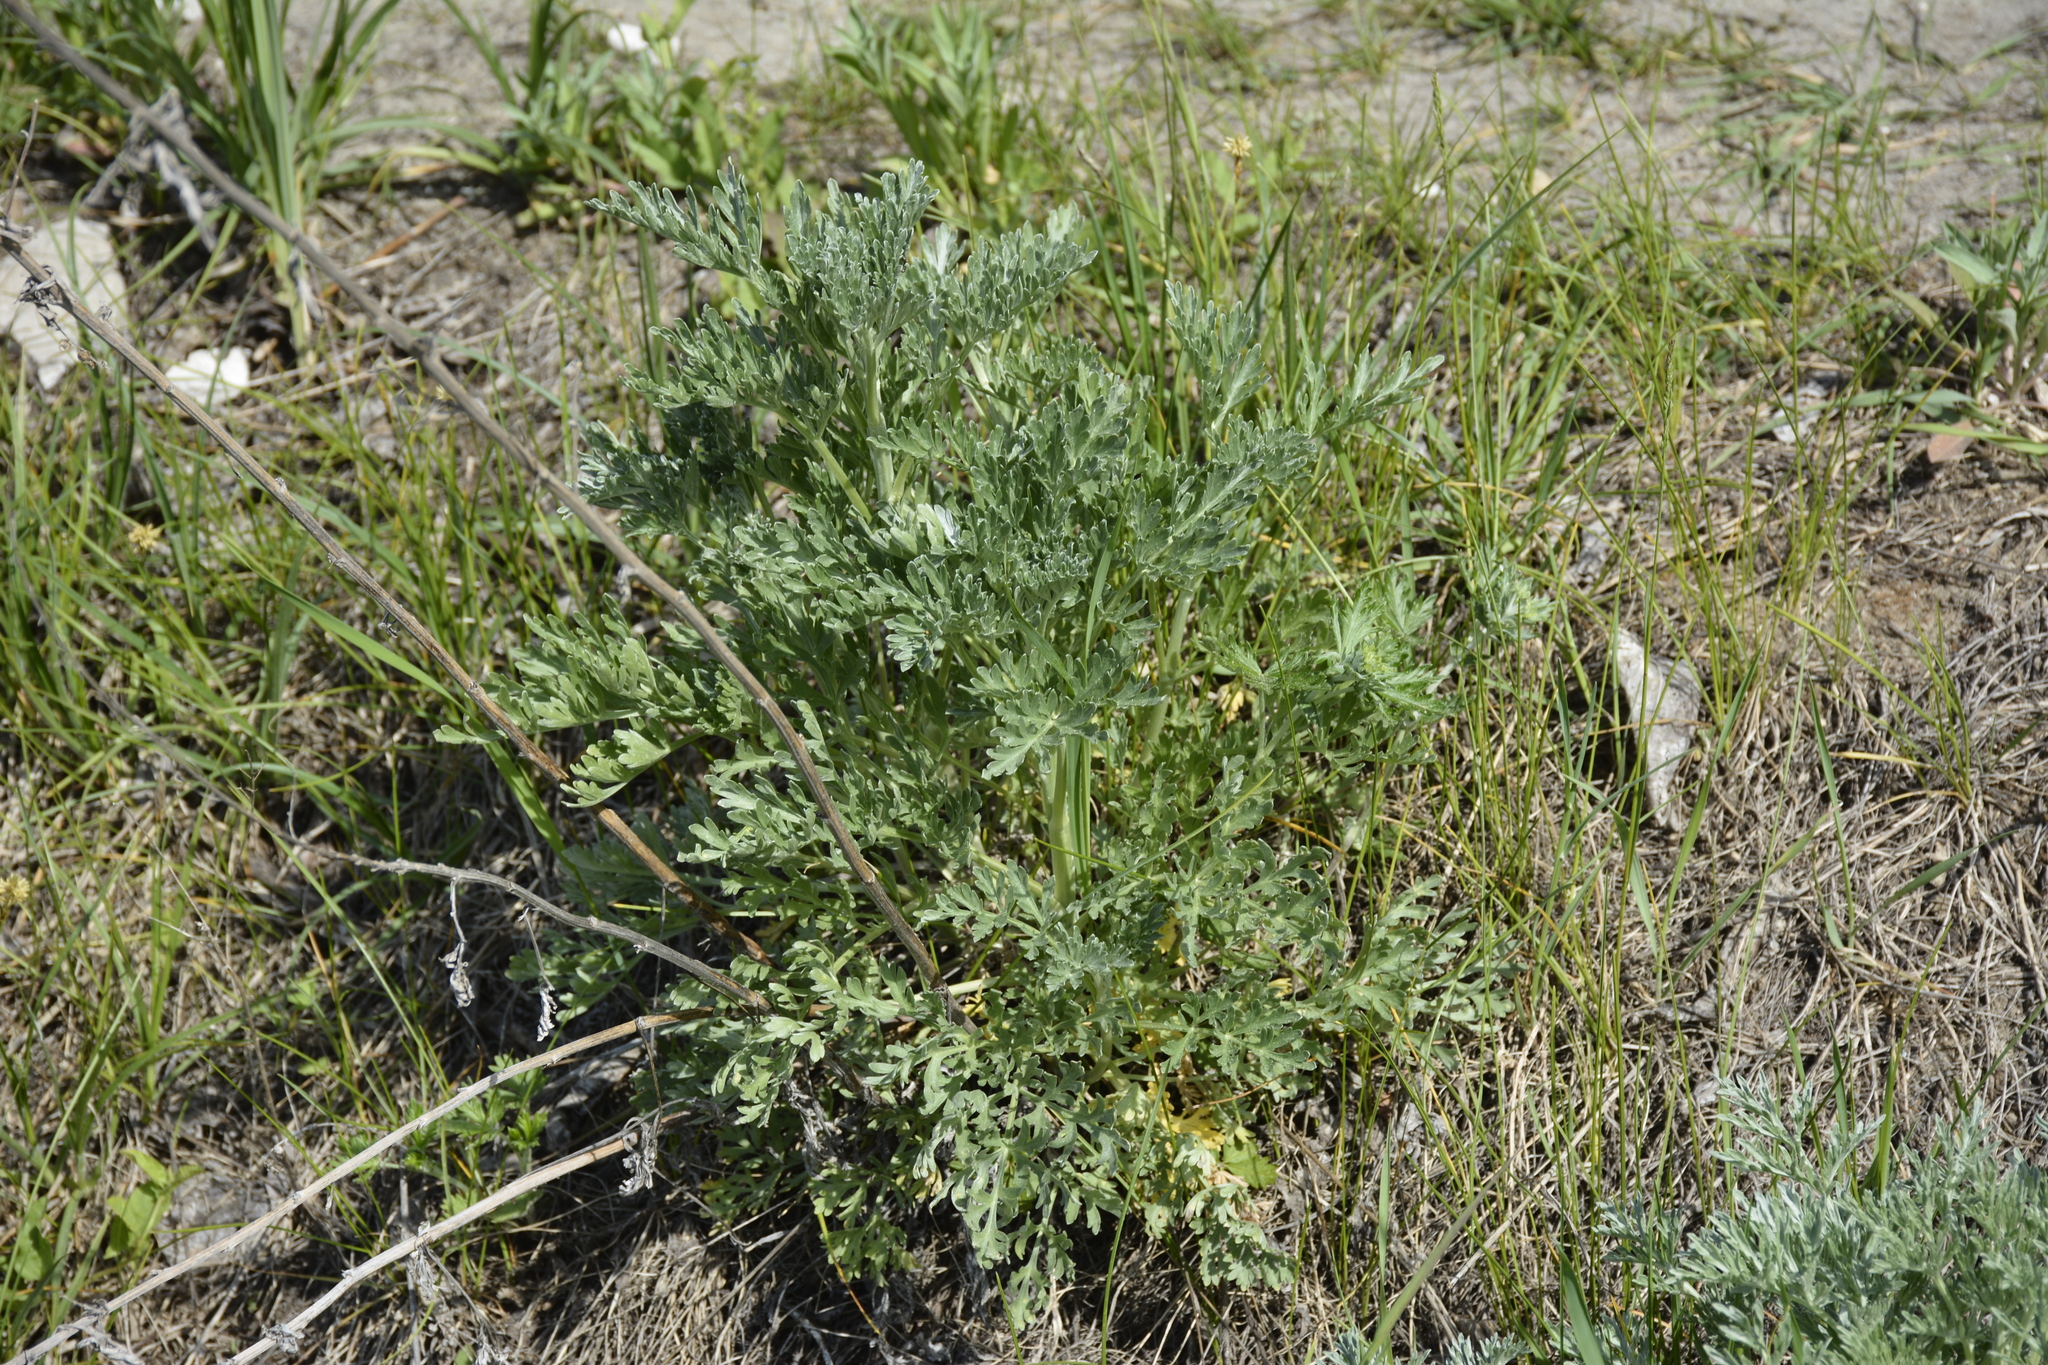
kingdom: Plantae
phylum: Tracheophyta
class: Magnoliopsida
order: Asterales
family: Asteraceae
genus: Artemisia
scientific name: Artemisia absinthium
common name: Wormwood
